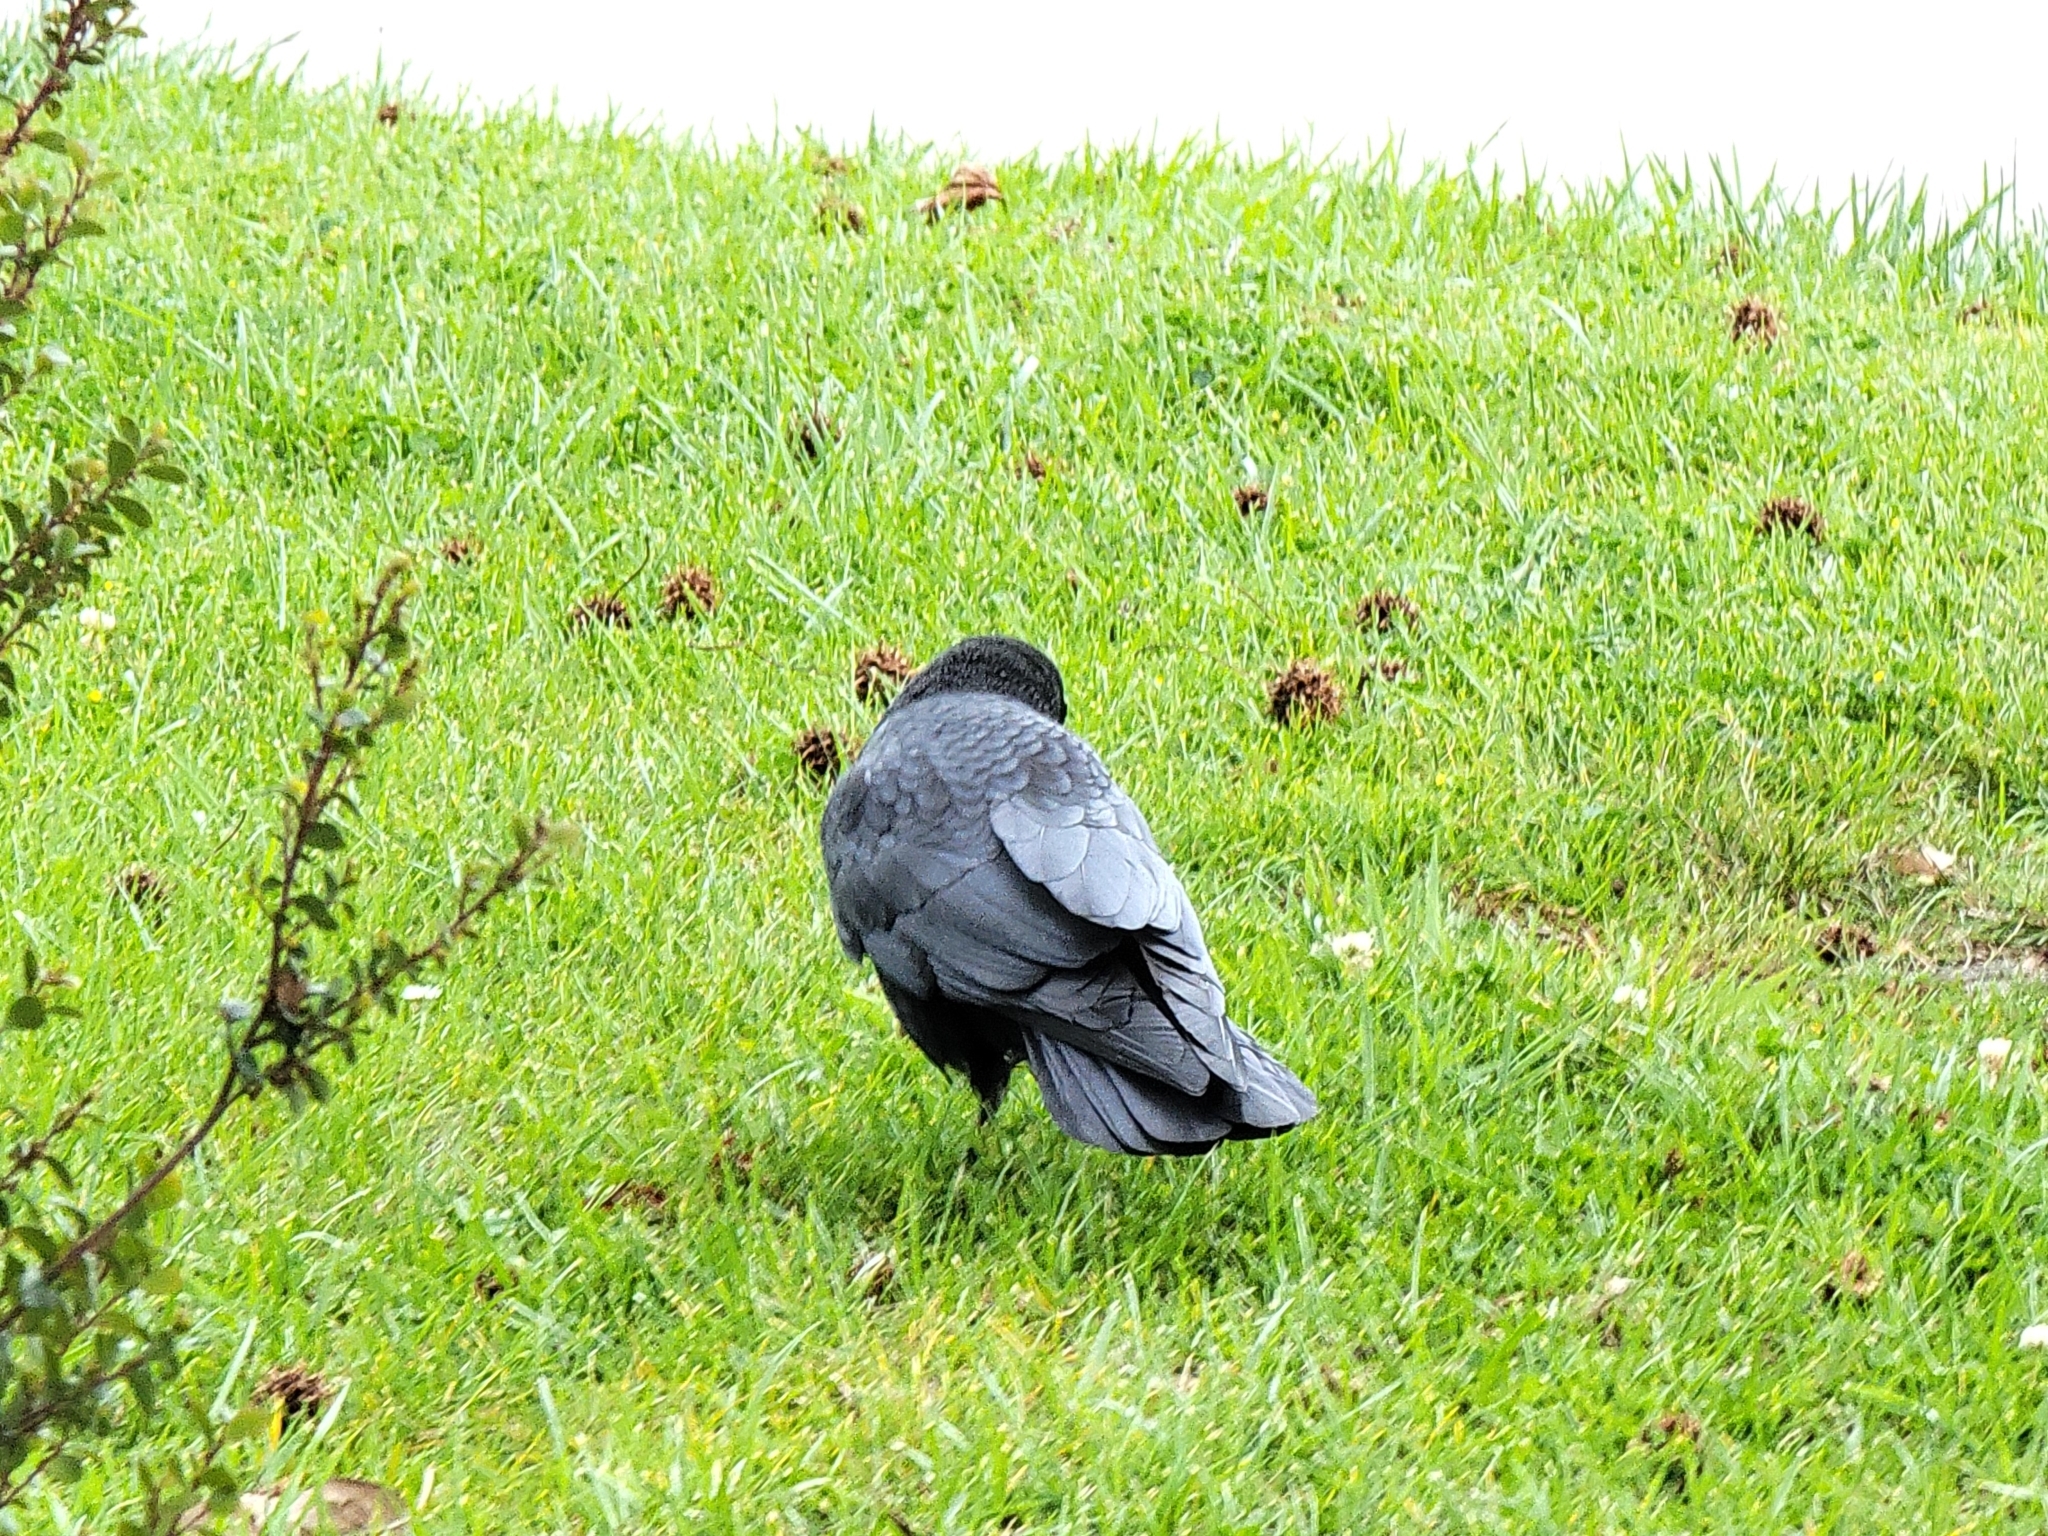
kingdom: Animalia
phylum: Chordata
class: Aves
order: Passeriformes
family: Corvidae
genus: Corvus
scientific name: Corvus brachyrhynchos
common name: American crow
